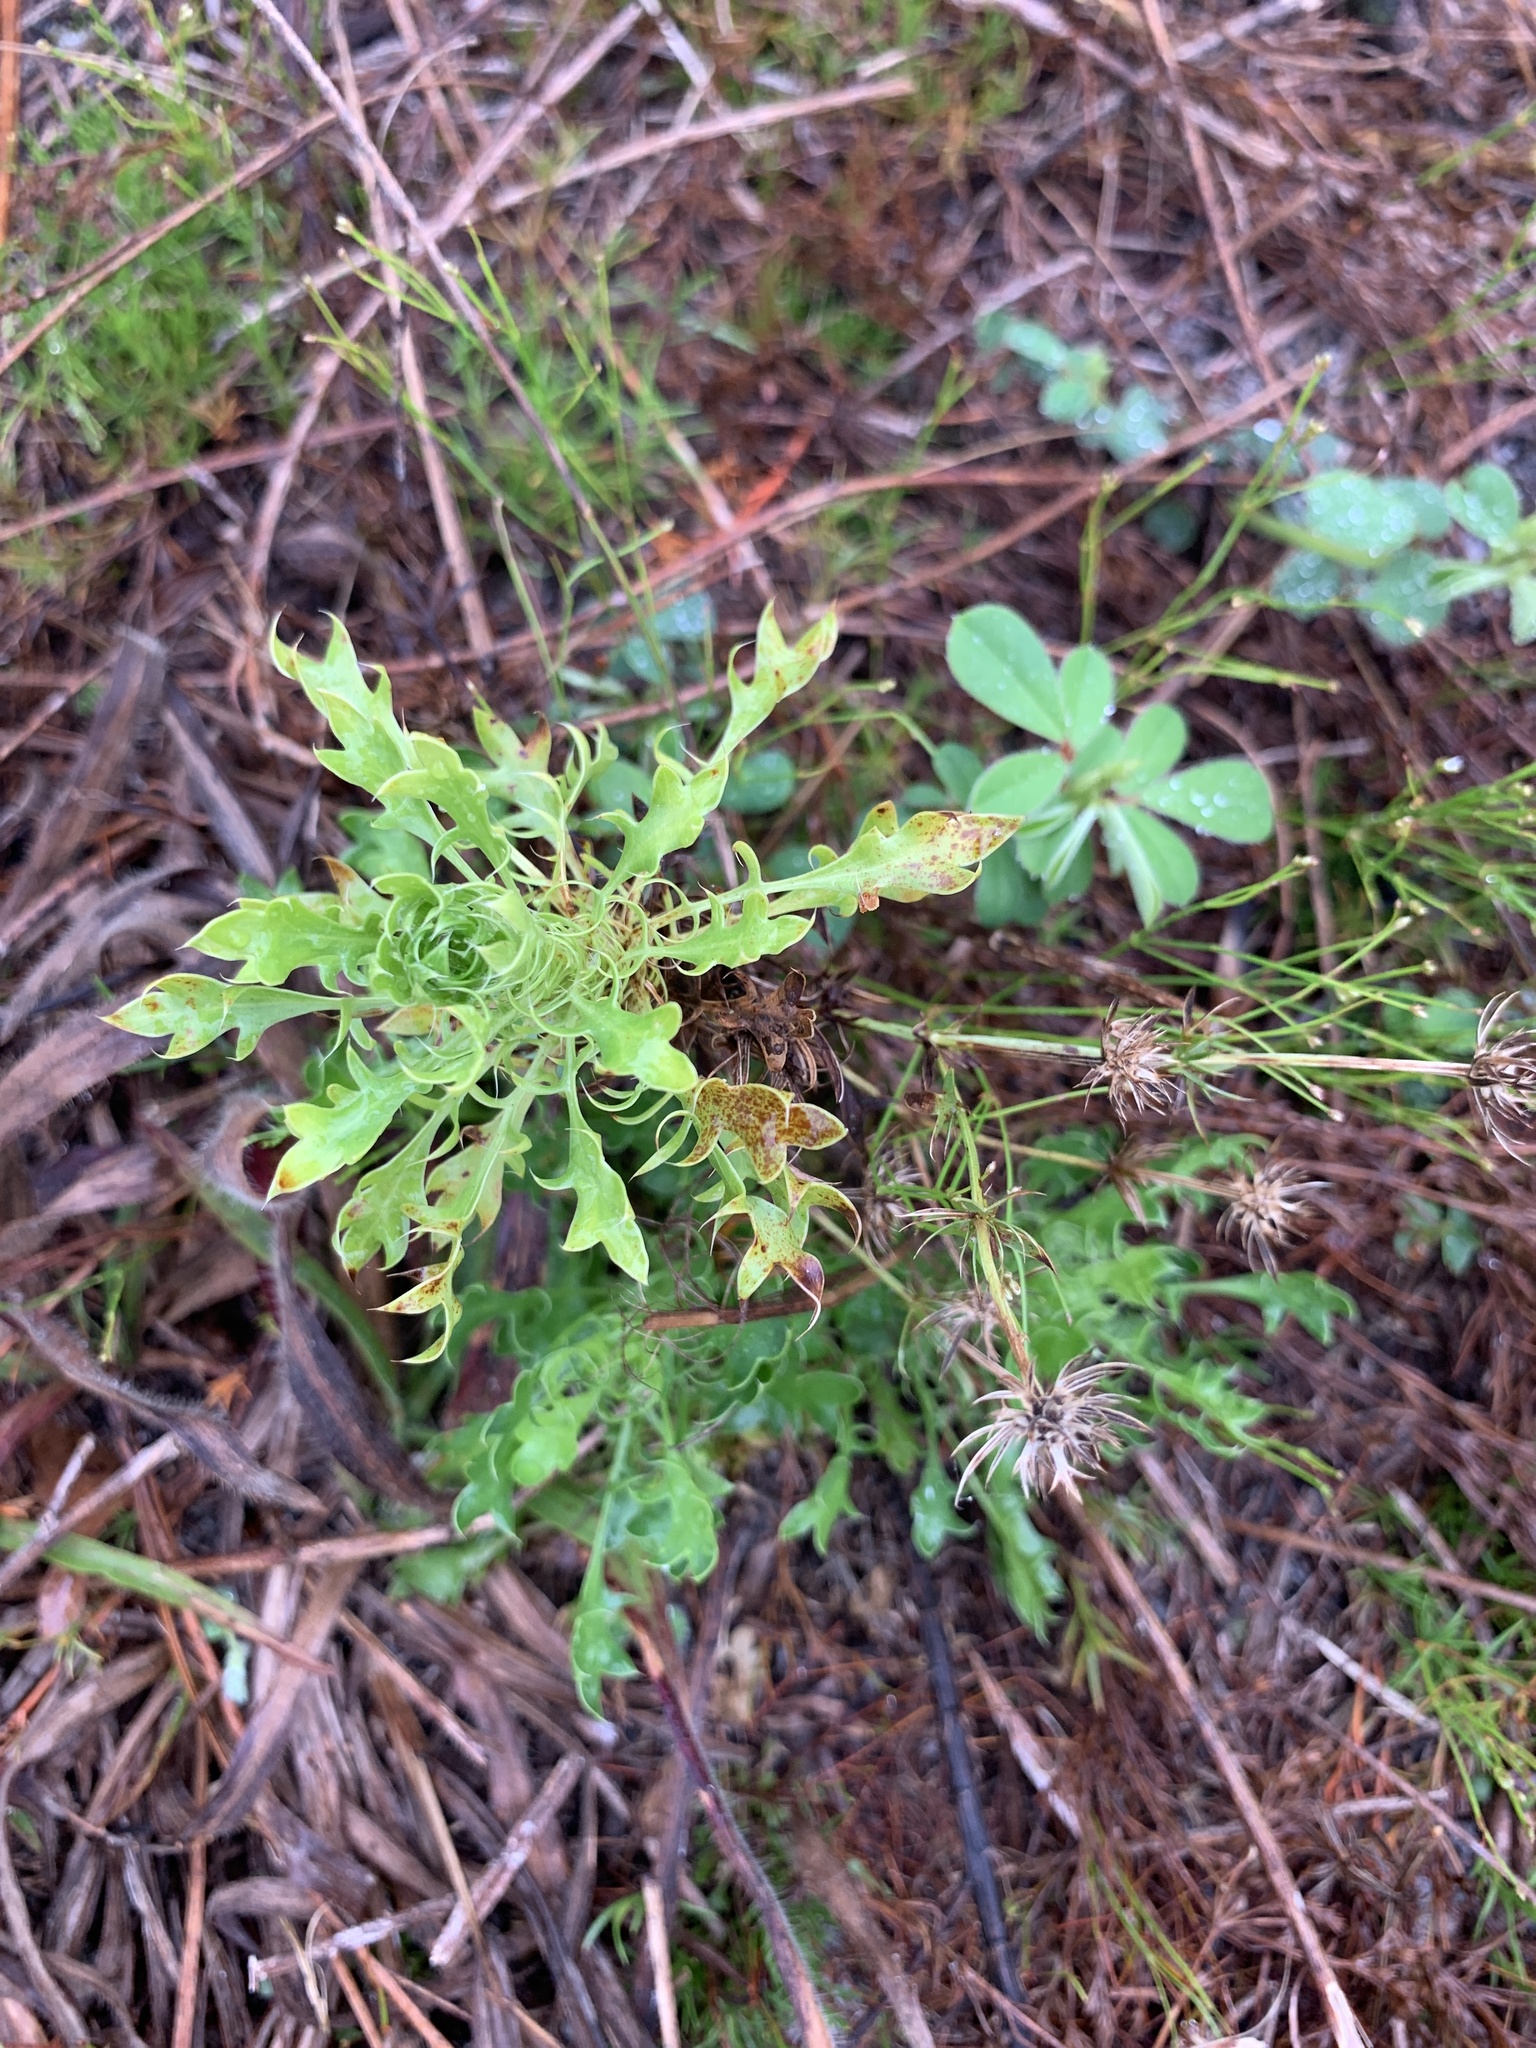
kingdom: Plantae
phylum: Tracheophyta
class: Magnoliopsida
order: Apiales
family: Apiaceae
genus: Eryngium
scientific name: Eryngium aromaticum
